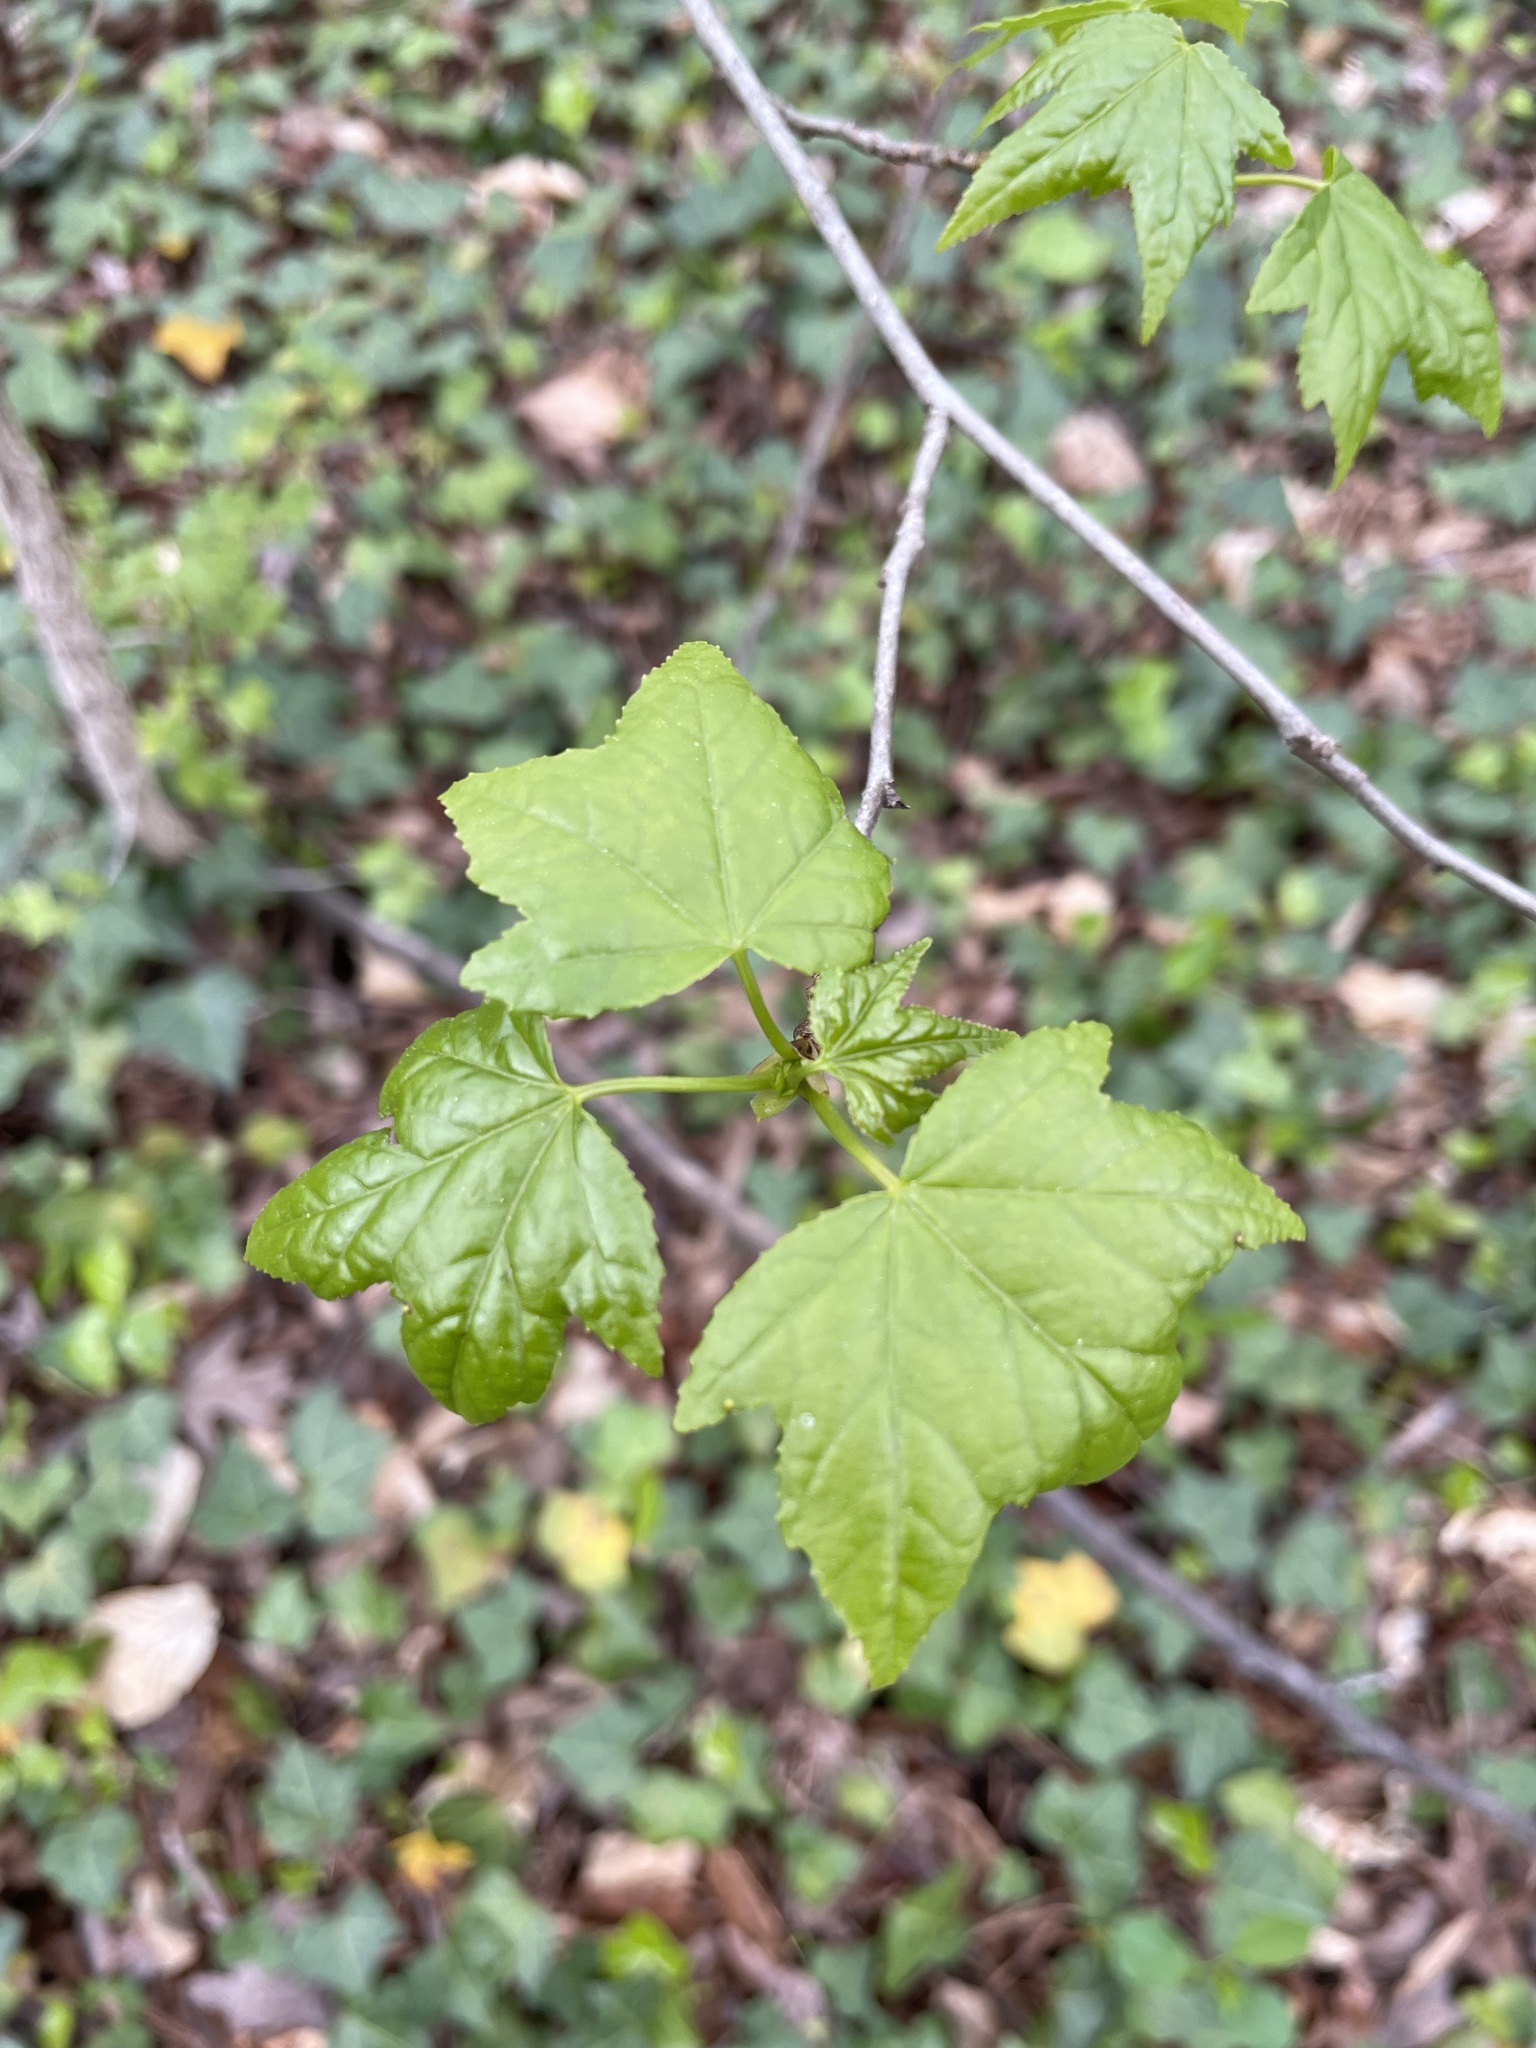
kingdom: Plantae
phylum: Tracheophyta
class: Magnoliopsida
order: Saxifragales
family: Altingiaceae
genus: Liquidambar
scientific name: Liquidambar styraciflua
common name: Sweet gum
